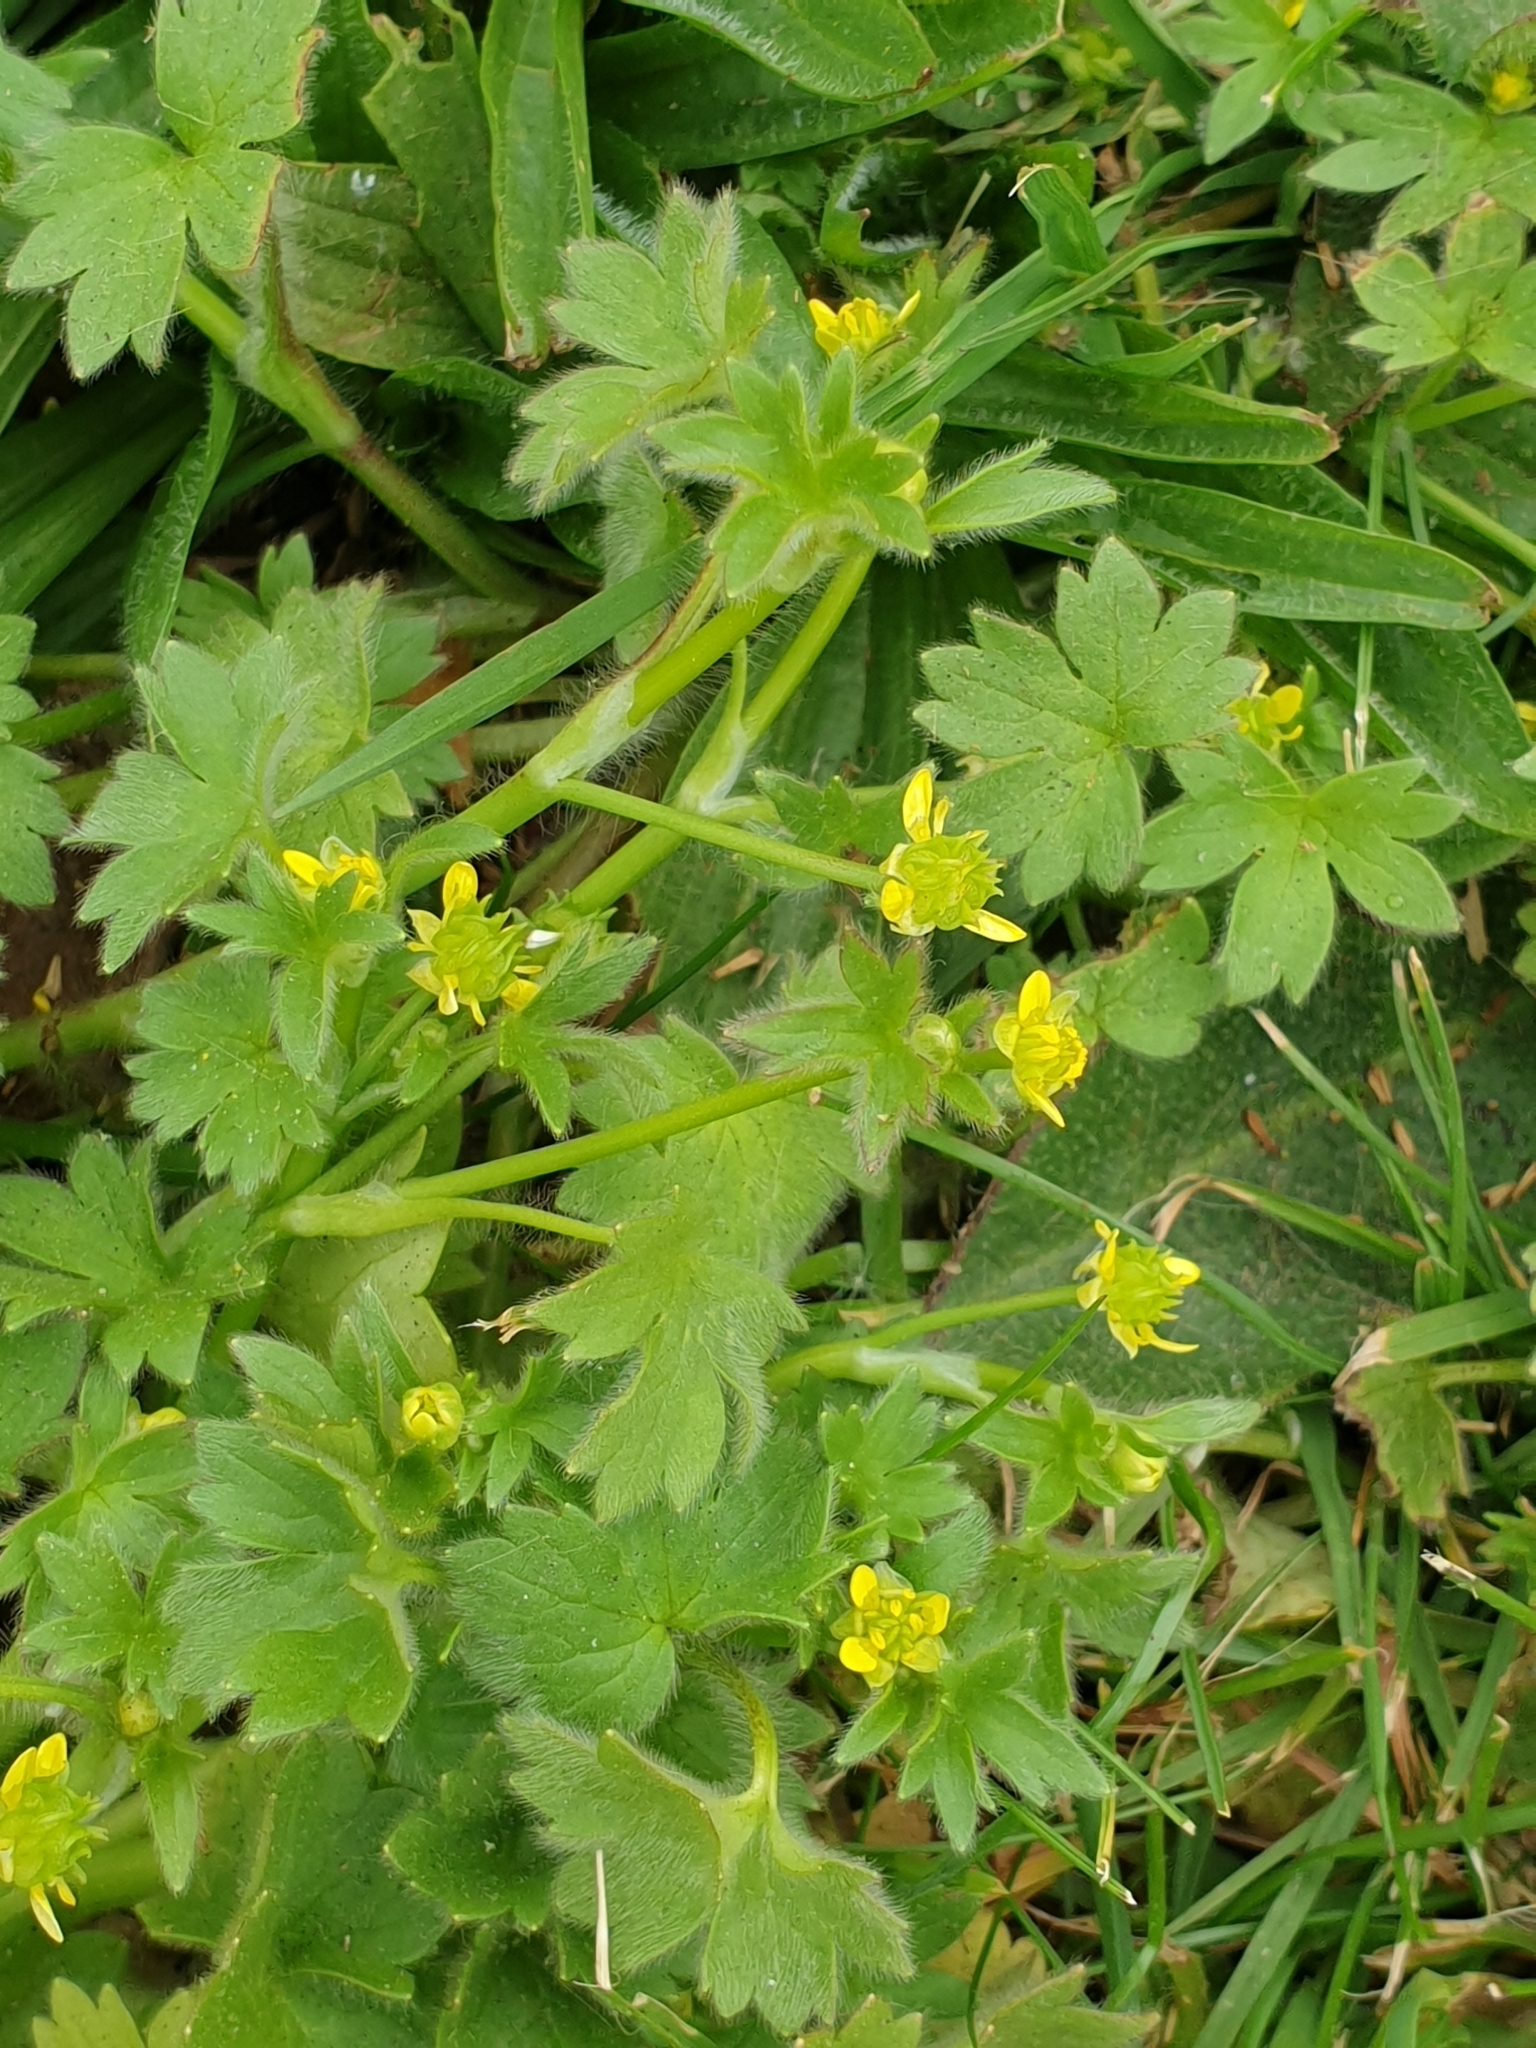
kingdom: Plantae
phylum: Tracheophyta
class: Magnoliopsida
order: Ranunculales
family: Ranunculaceae
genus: Ranunculus
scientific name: Ranunculus parviflorus
